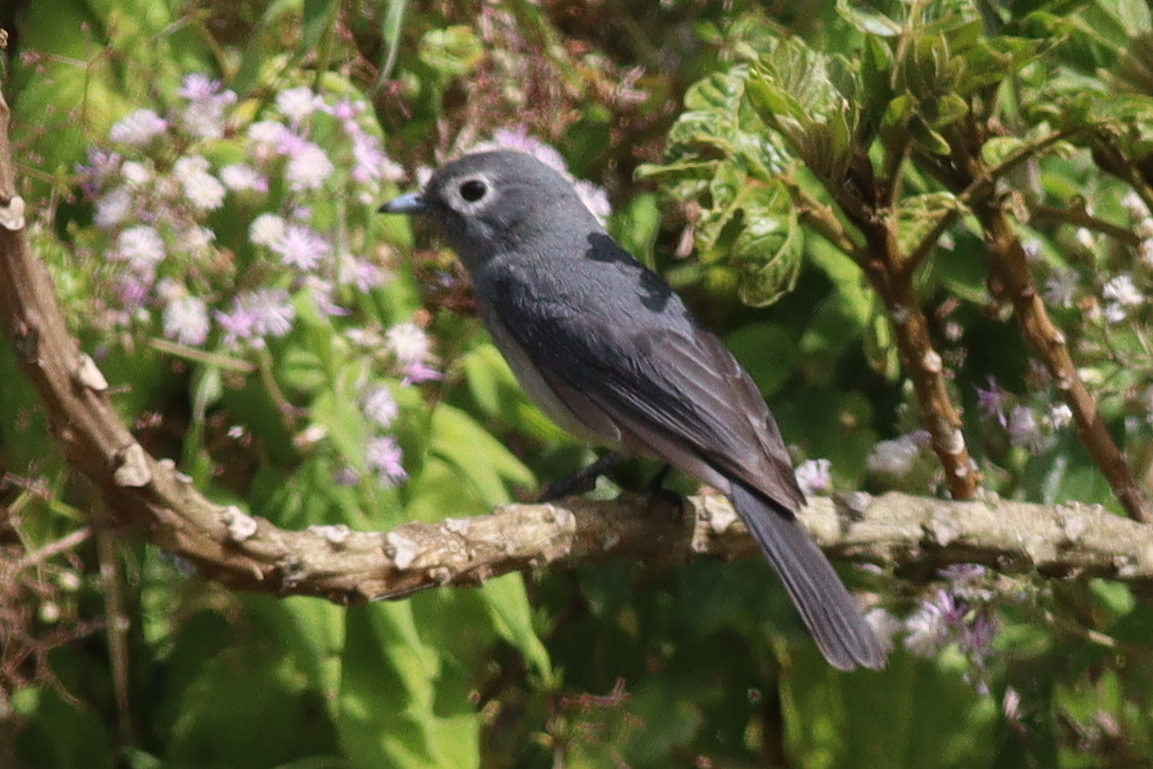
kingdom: Animalia
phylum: Chordata
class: Aves
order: Passeriformes
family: Muscicapidae
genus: Dioptrornis
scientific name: Dioptrornis fischeri
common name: White-eyed slaty flycatcher
